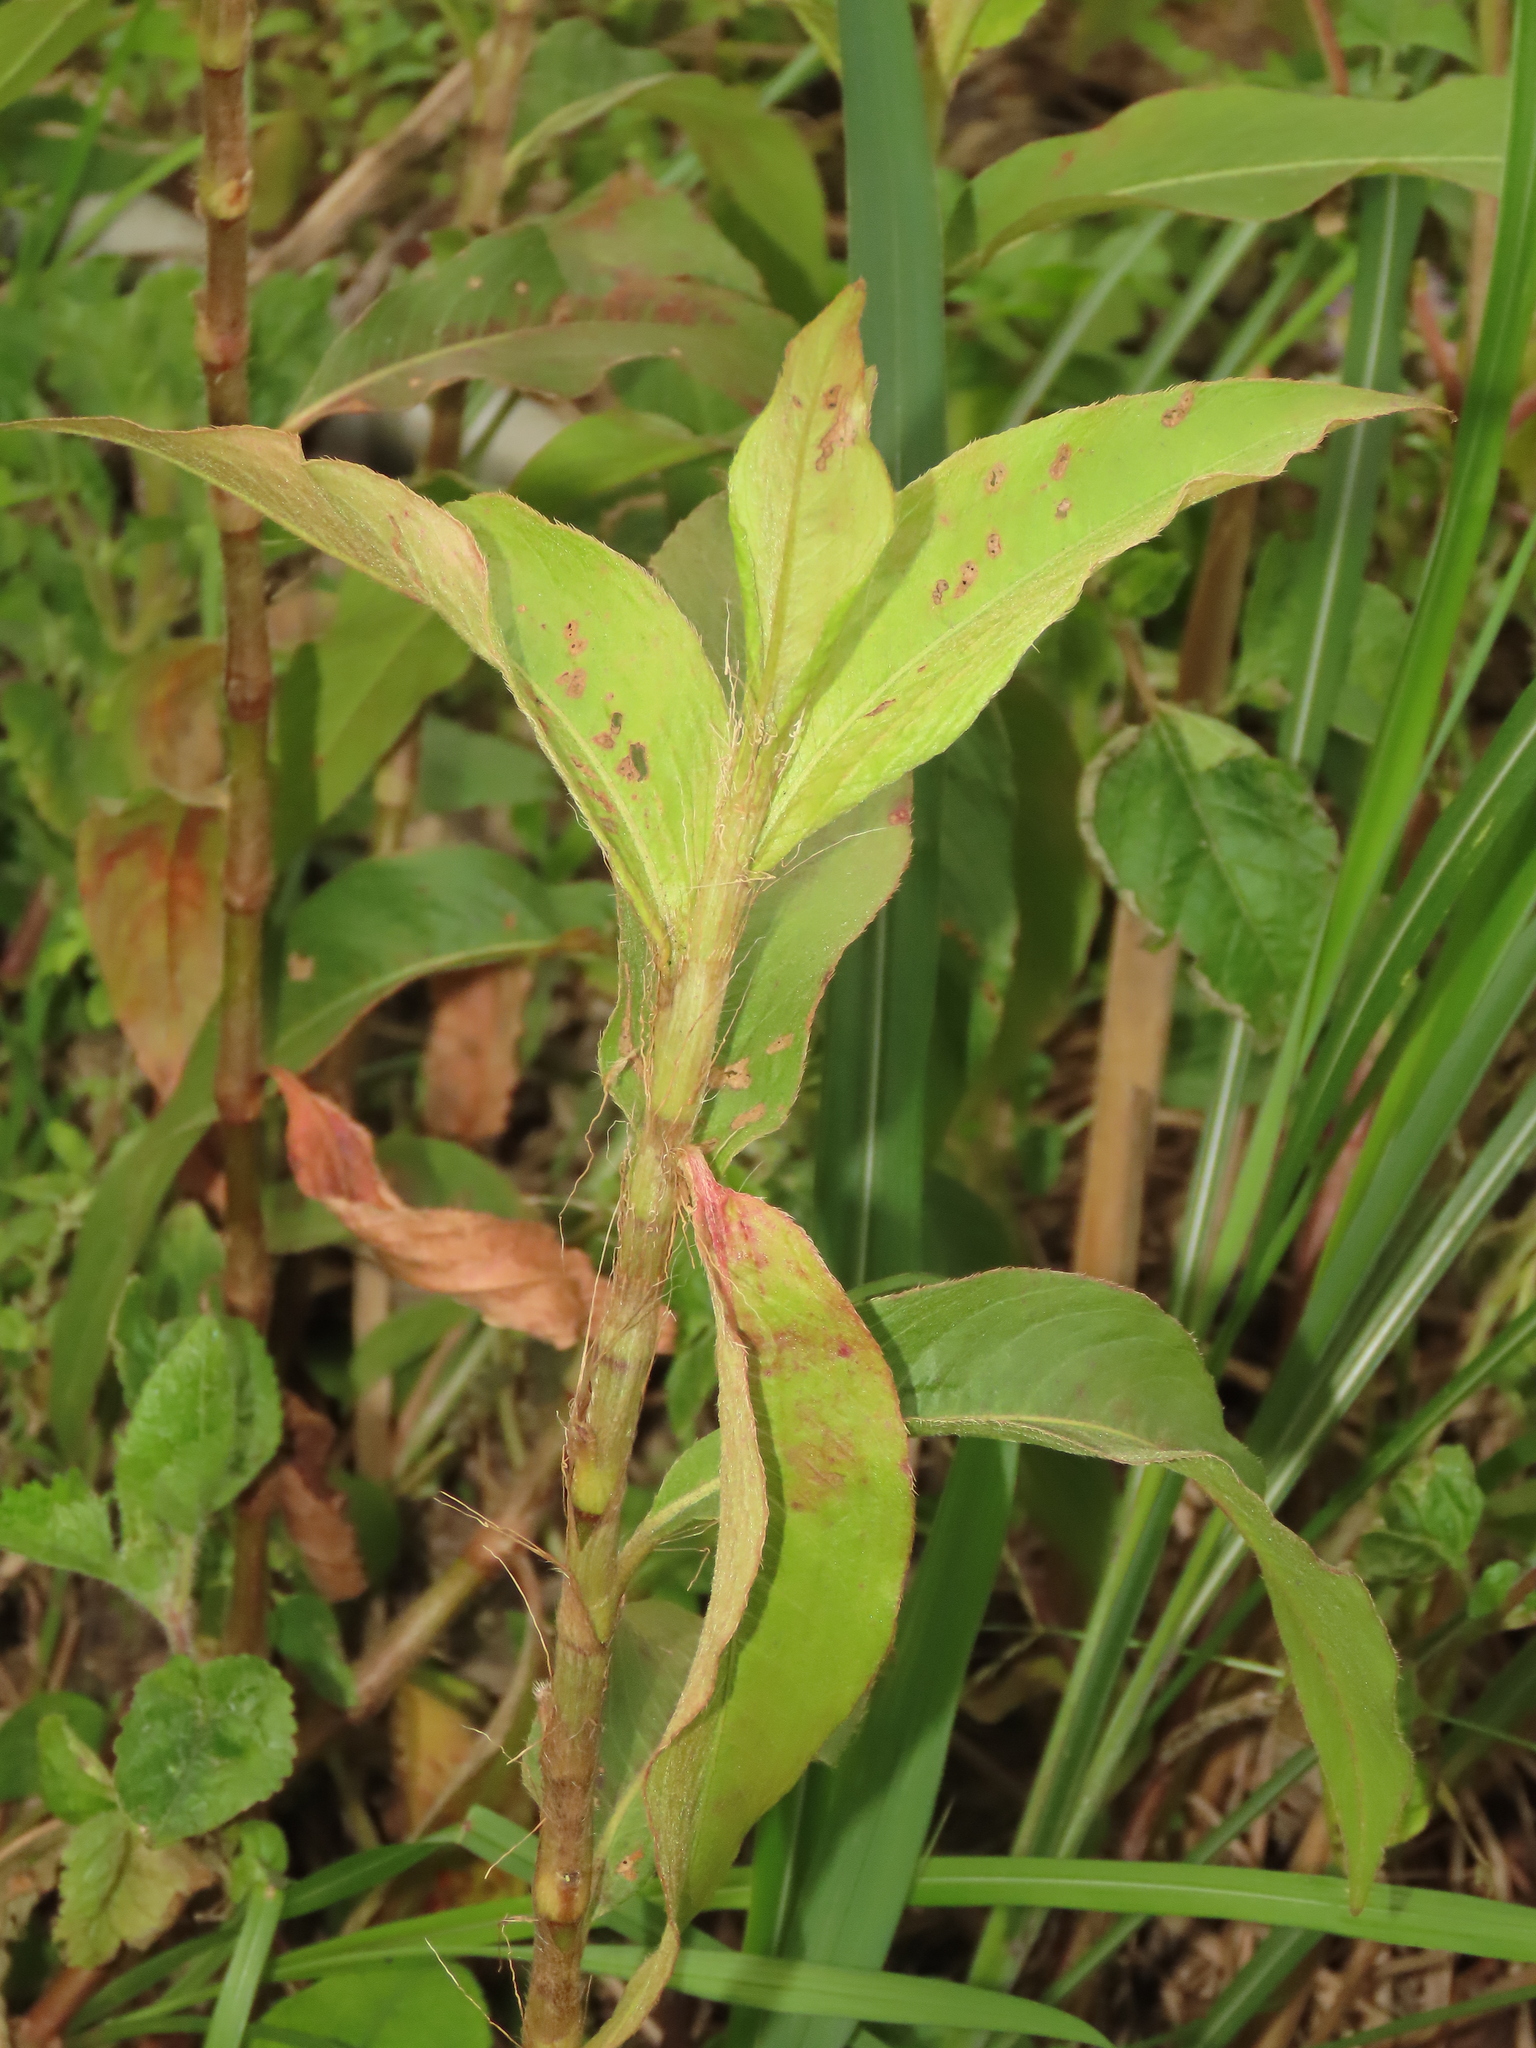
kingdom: Plantae
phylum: Tracheophyta
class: Magnoliopsida
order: Caryophyllales
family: Polygonaceae
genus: Persicaria
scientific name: Persicaria barbata
